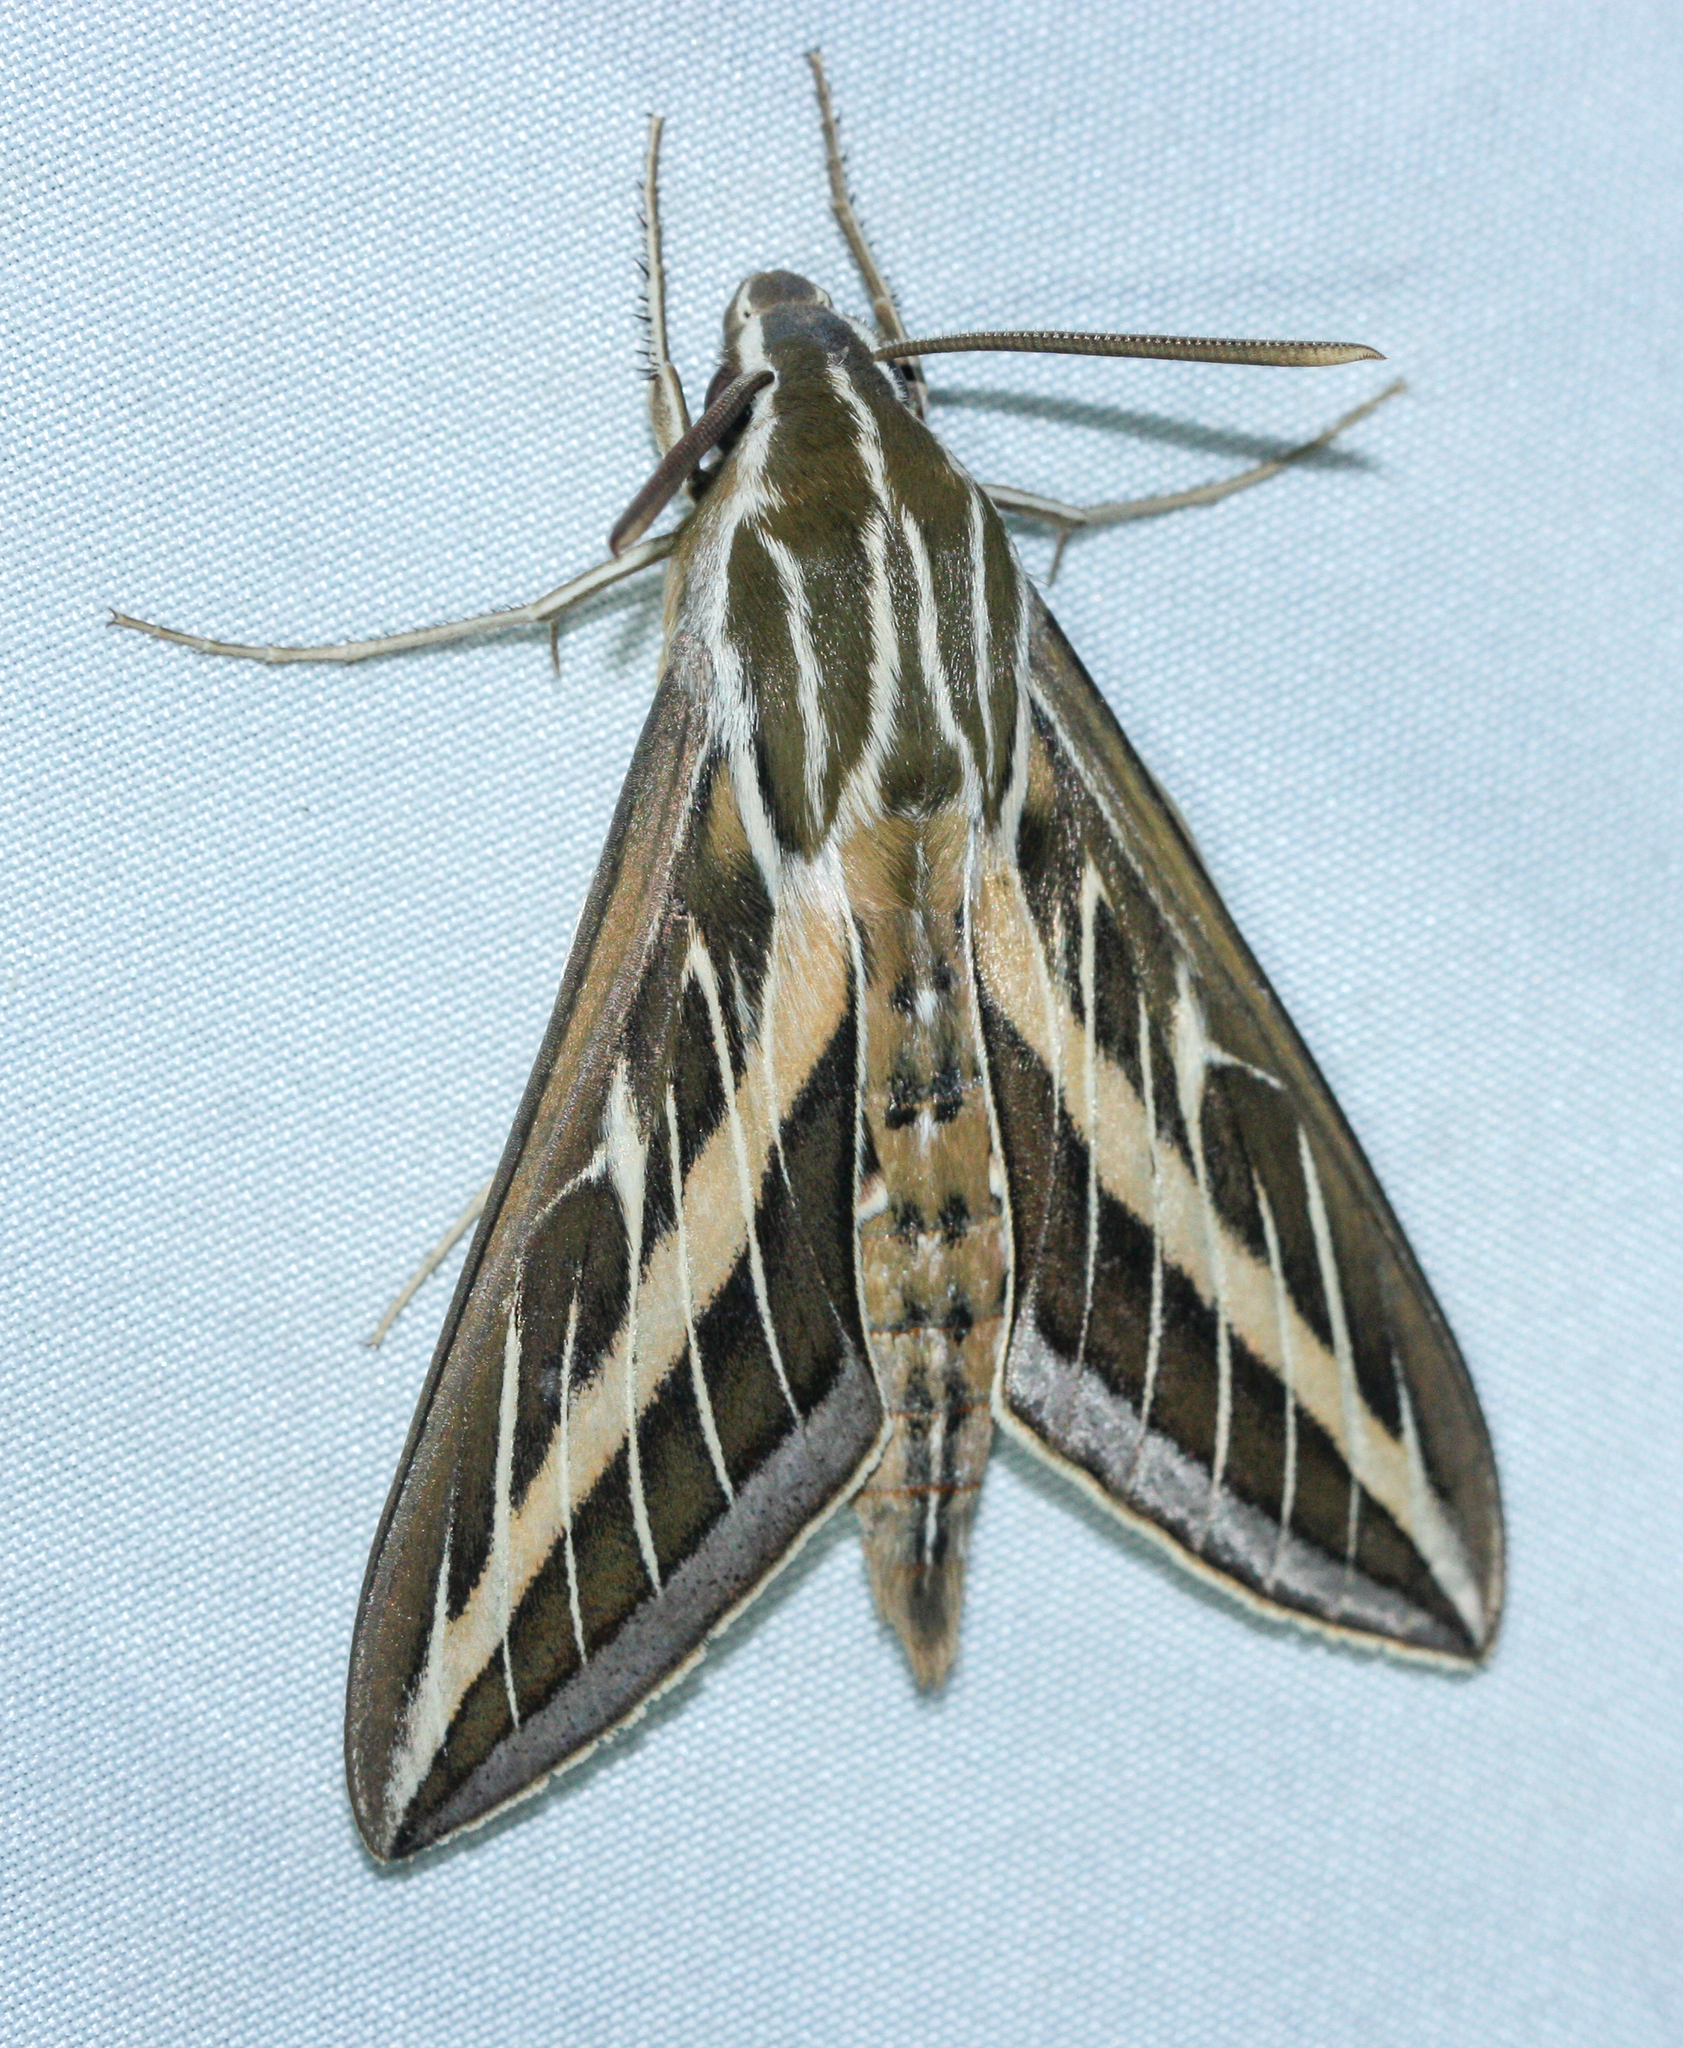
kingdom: Animalia
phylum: Arthropoda
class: Insecta
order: Lepidoptera
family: Sphingidae
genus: Hyles
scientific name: Hyles lineata
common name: White-lined sphinx
